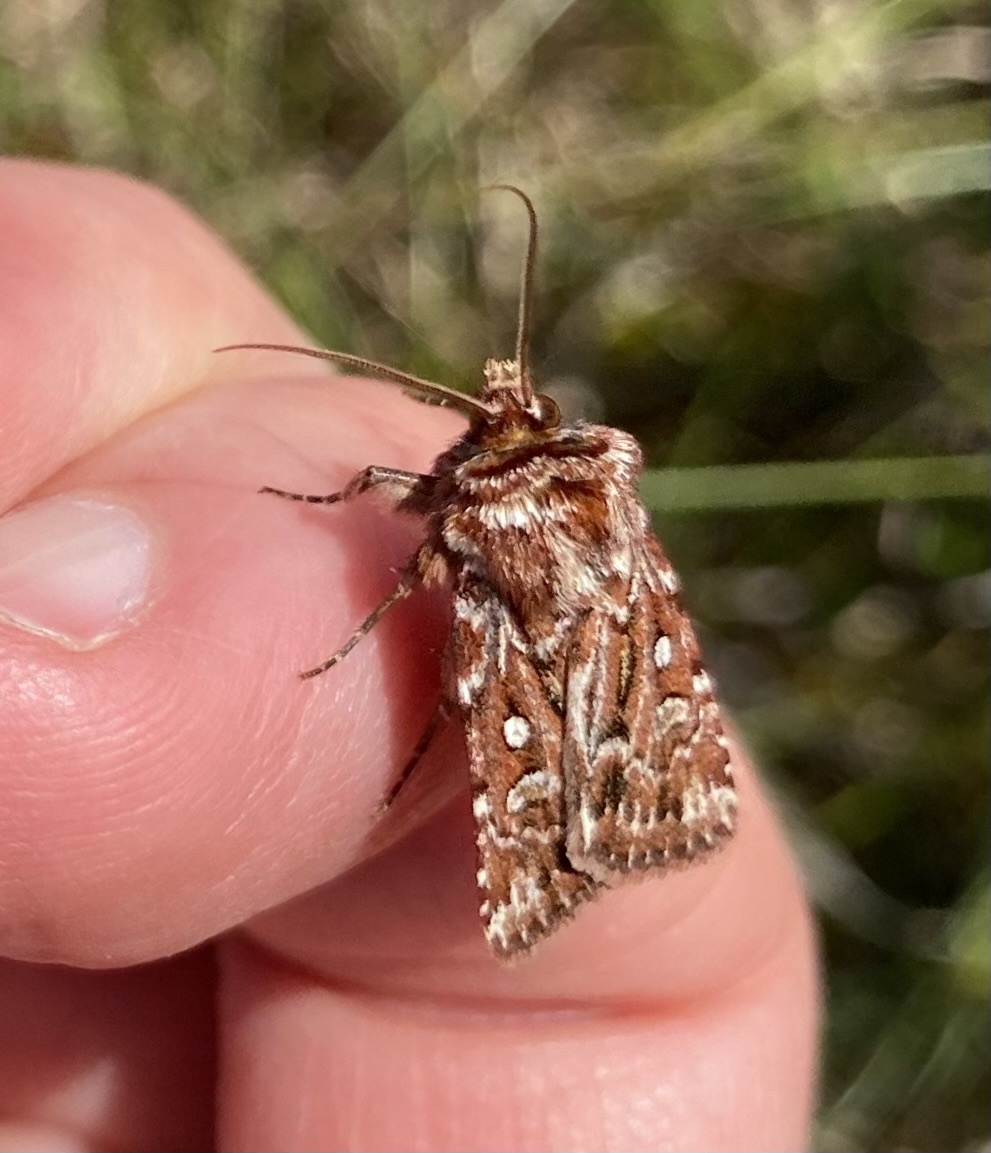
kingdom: Animalia
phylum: Arthropoda
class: Insecta
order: Lepidoptera
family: Noctuidae
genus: Lycophotia
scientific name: Lycophotia porphyrea
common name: True lover's knot
